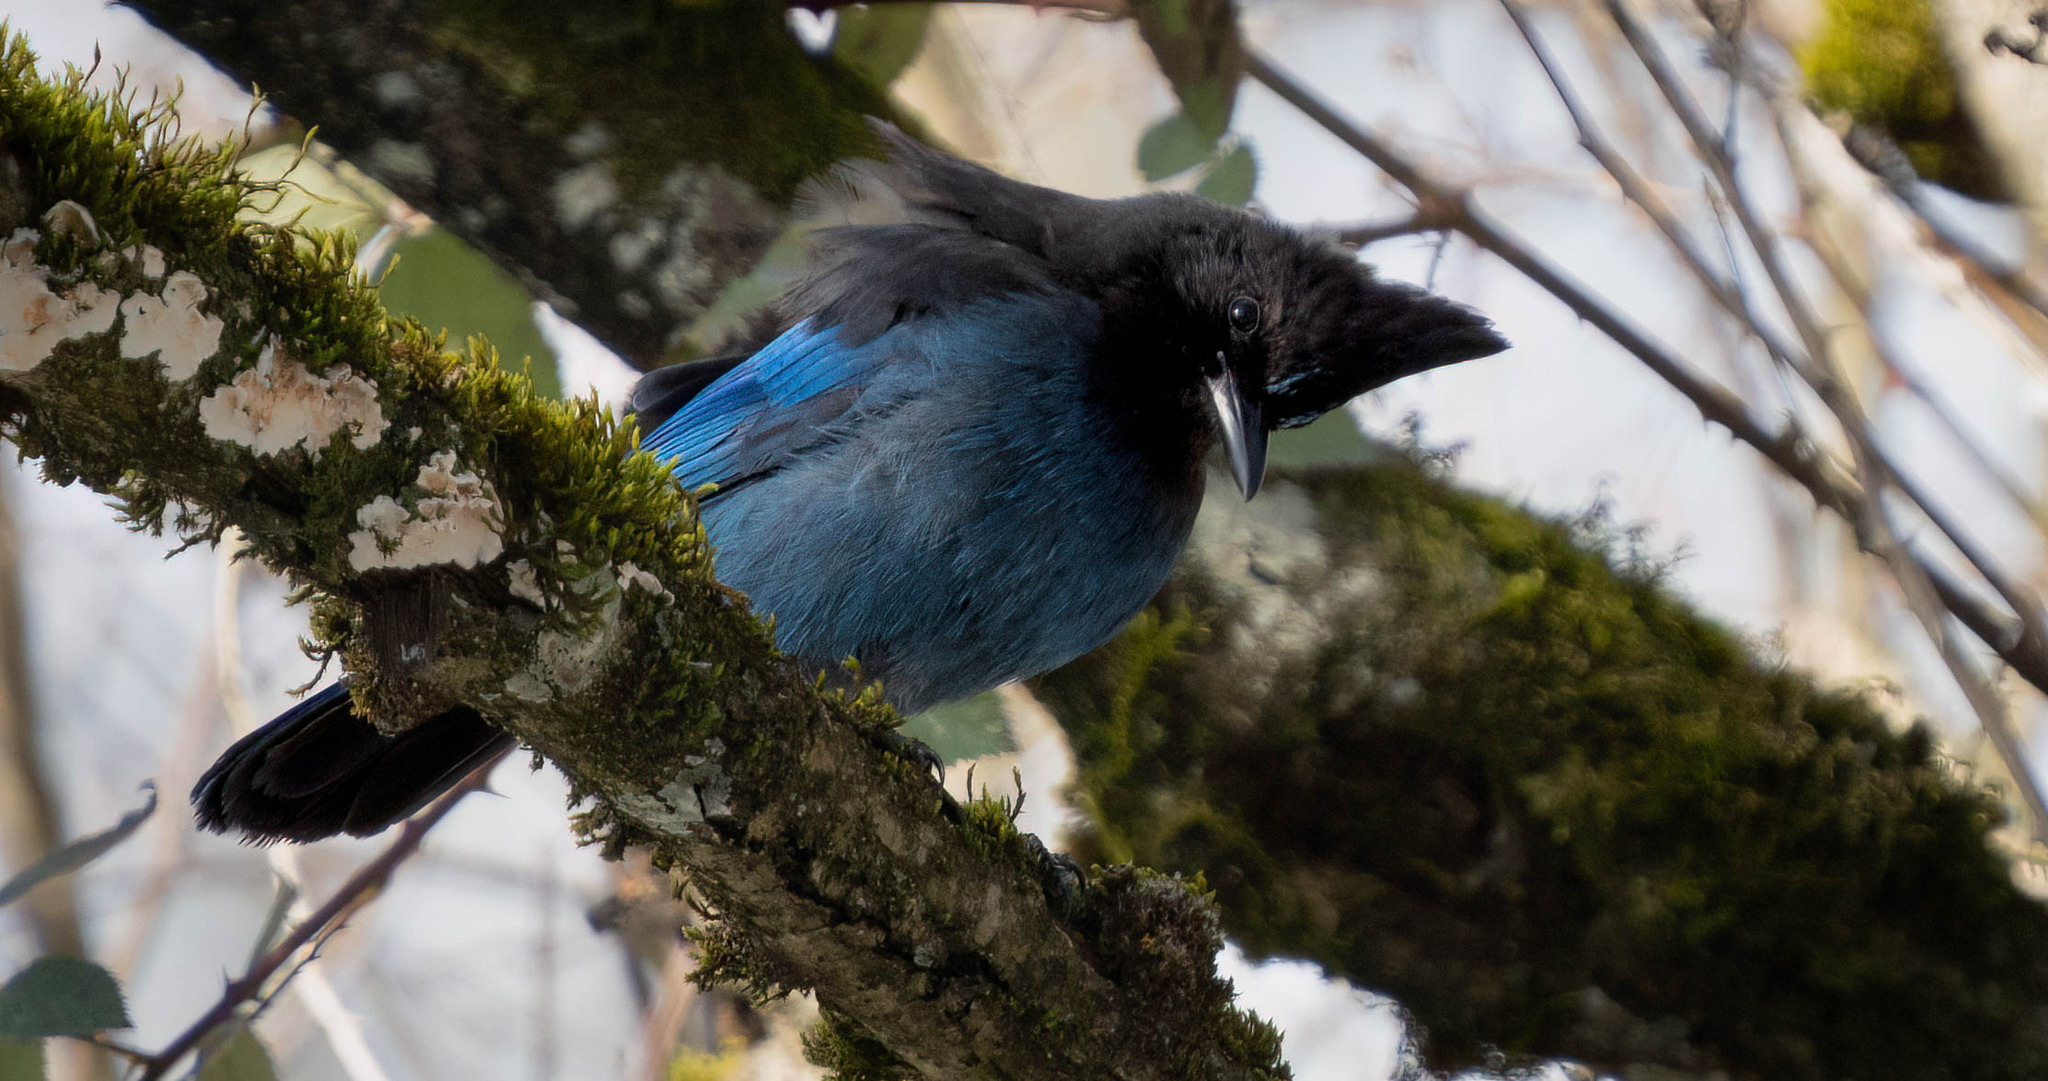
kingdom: Animalia
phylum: Chordata
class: Aves
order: Passeriformes
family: Corvidae
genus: Cyanocitta
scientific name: Cyanocitta stelleri
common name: Steller's jay
